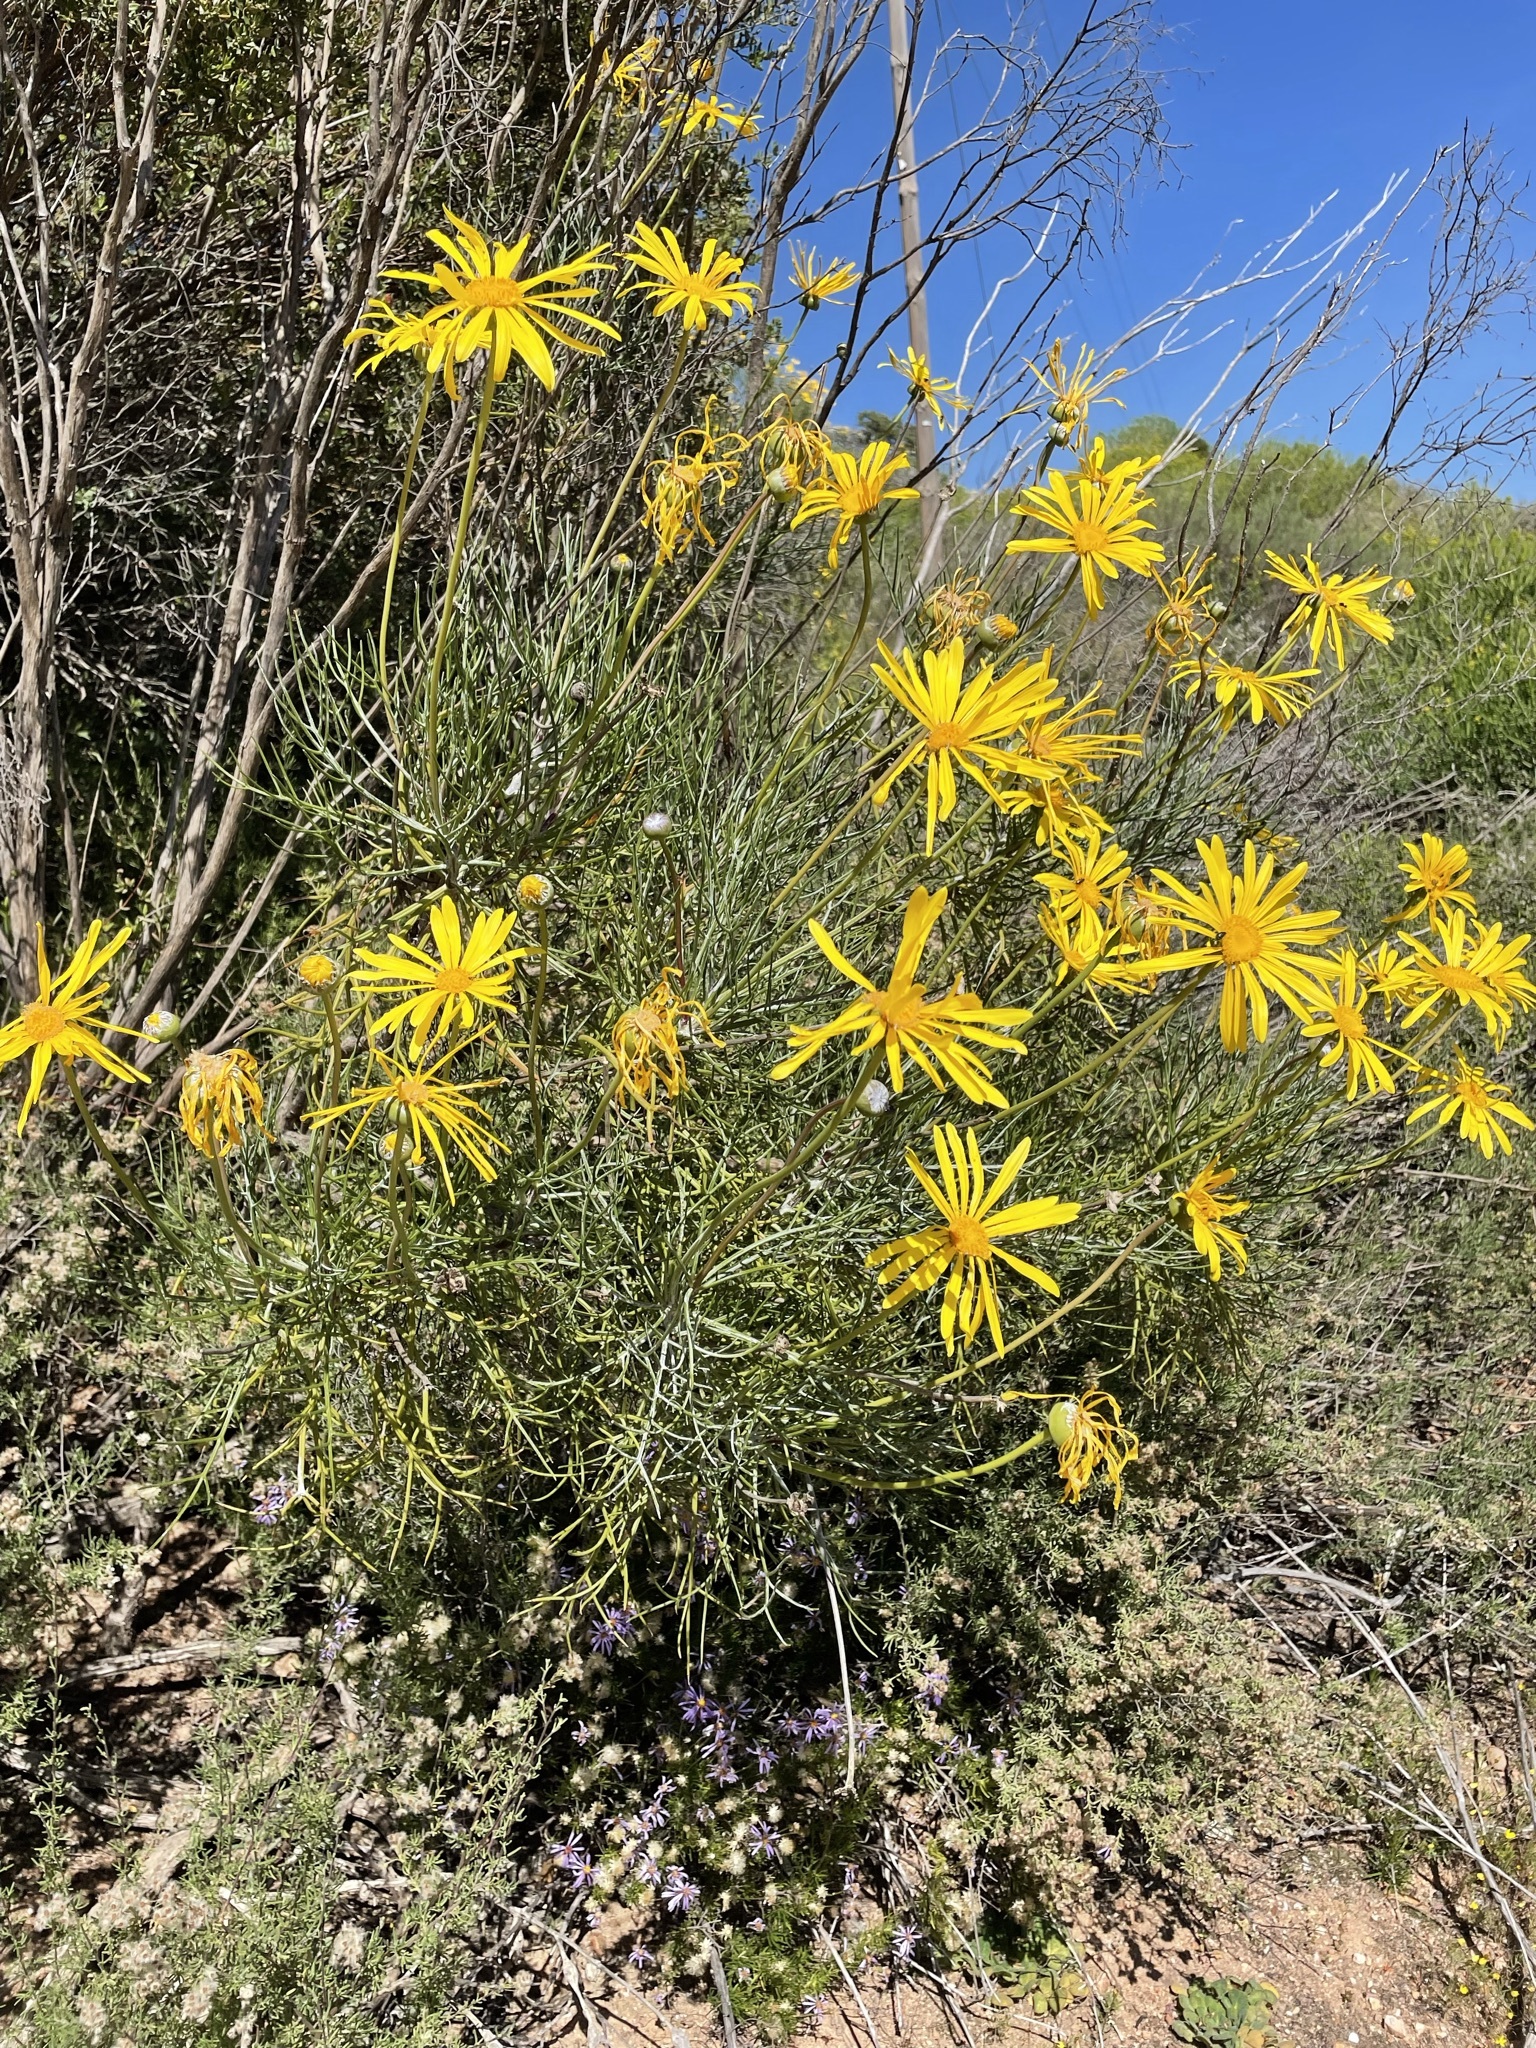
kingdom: Plantae
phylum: Tracheophyta
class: Magnoliopsida
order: Asterales
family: Asteraceae
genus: Euryops
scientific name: Euryops speciosissimus
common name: Clanwilliam daisy
